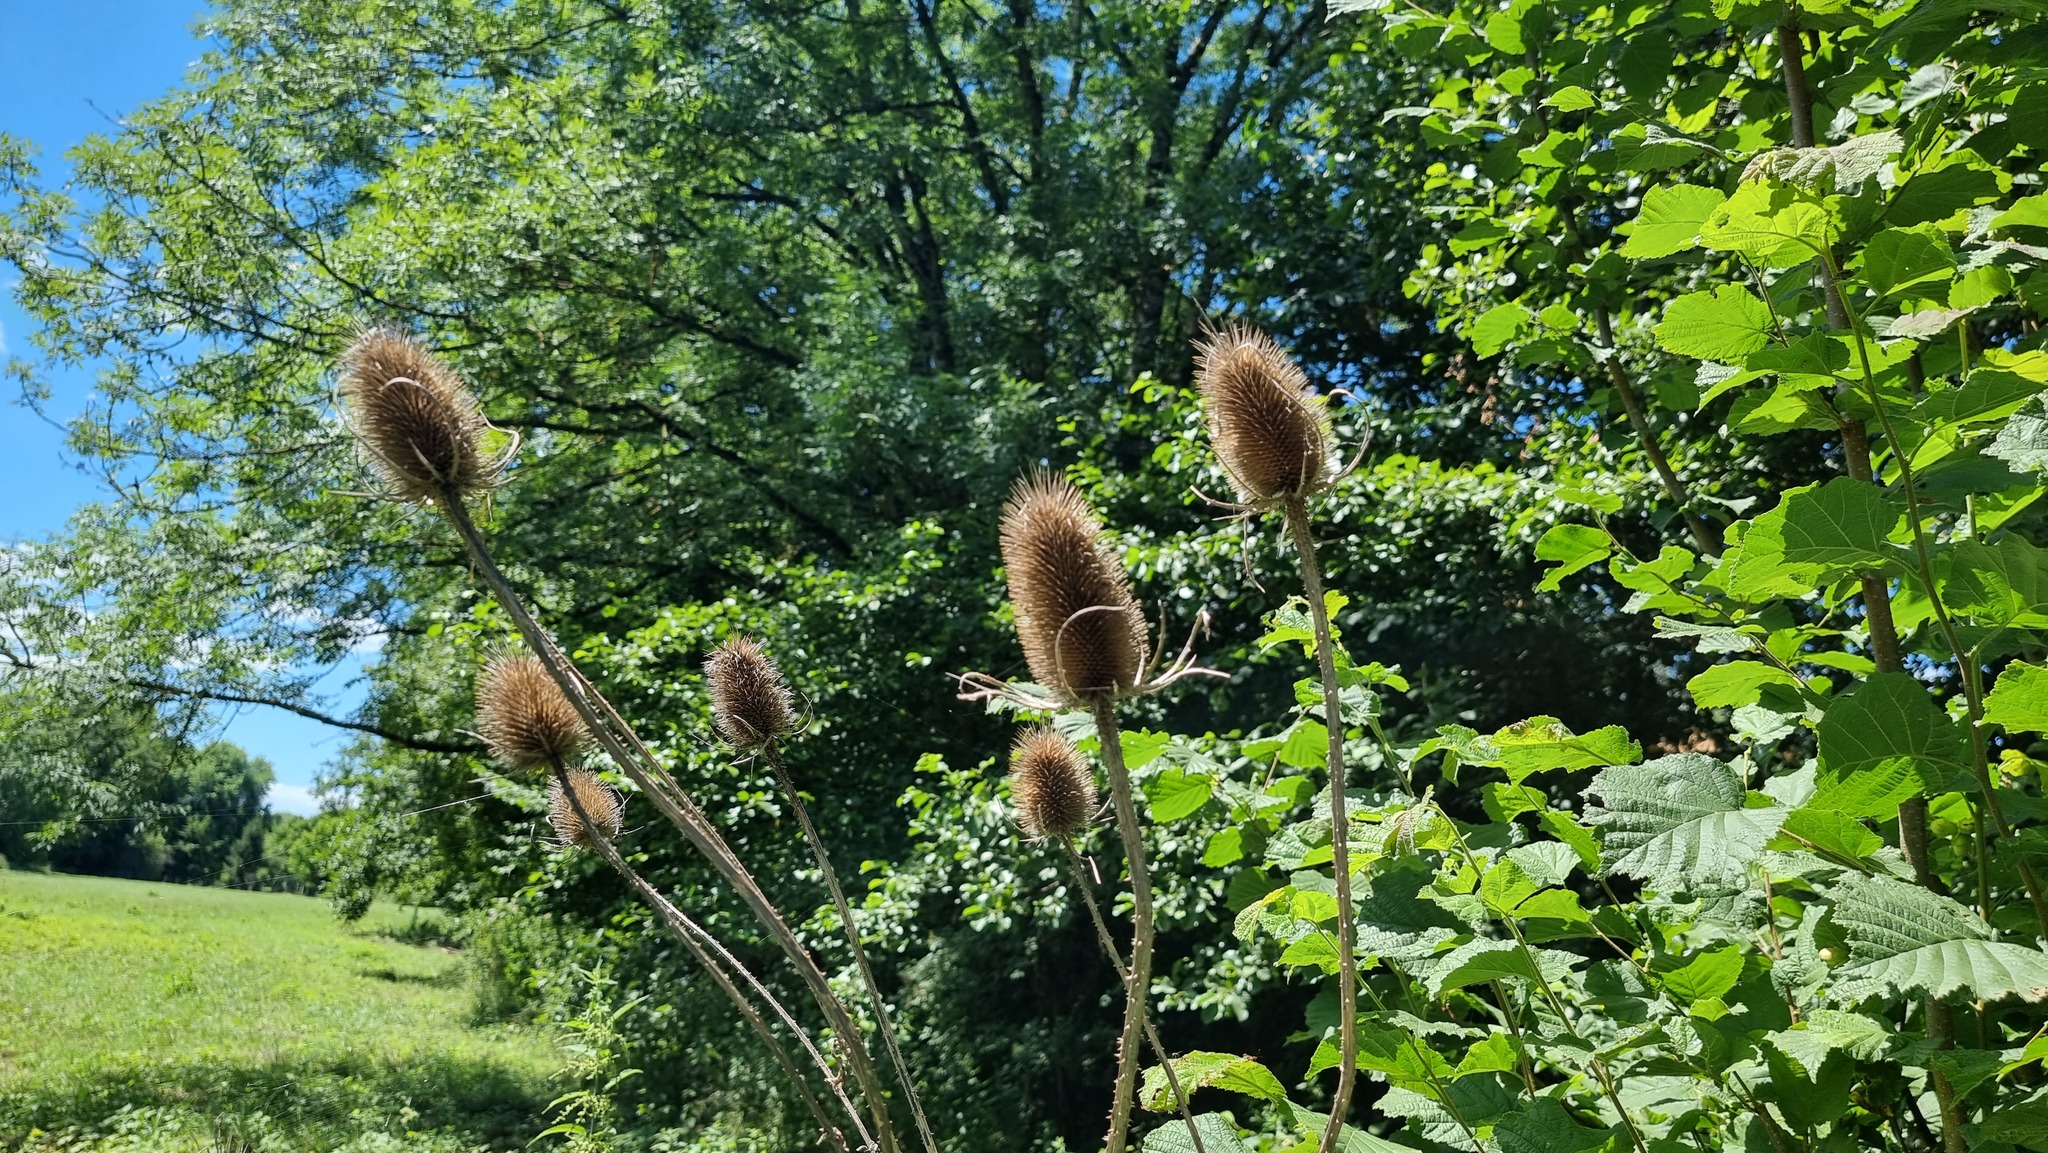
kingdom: Plantae
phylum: Tracheophyta
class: Magnoliopsida
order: Dipsacales
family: Caprifoliaceae
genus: Dipsacus
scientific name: Dipsacus fullonum
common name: Teasel
